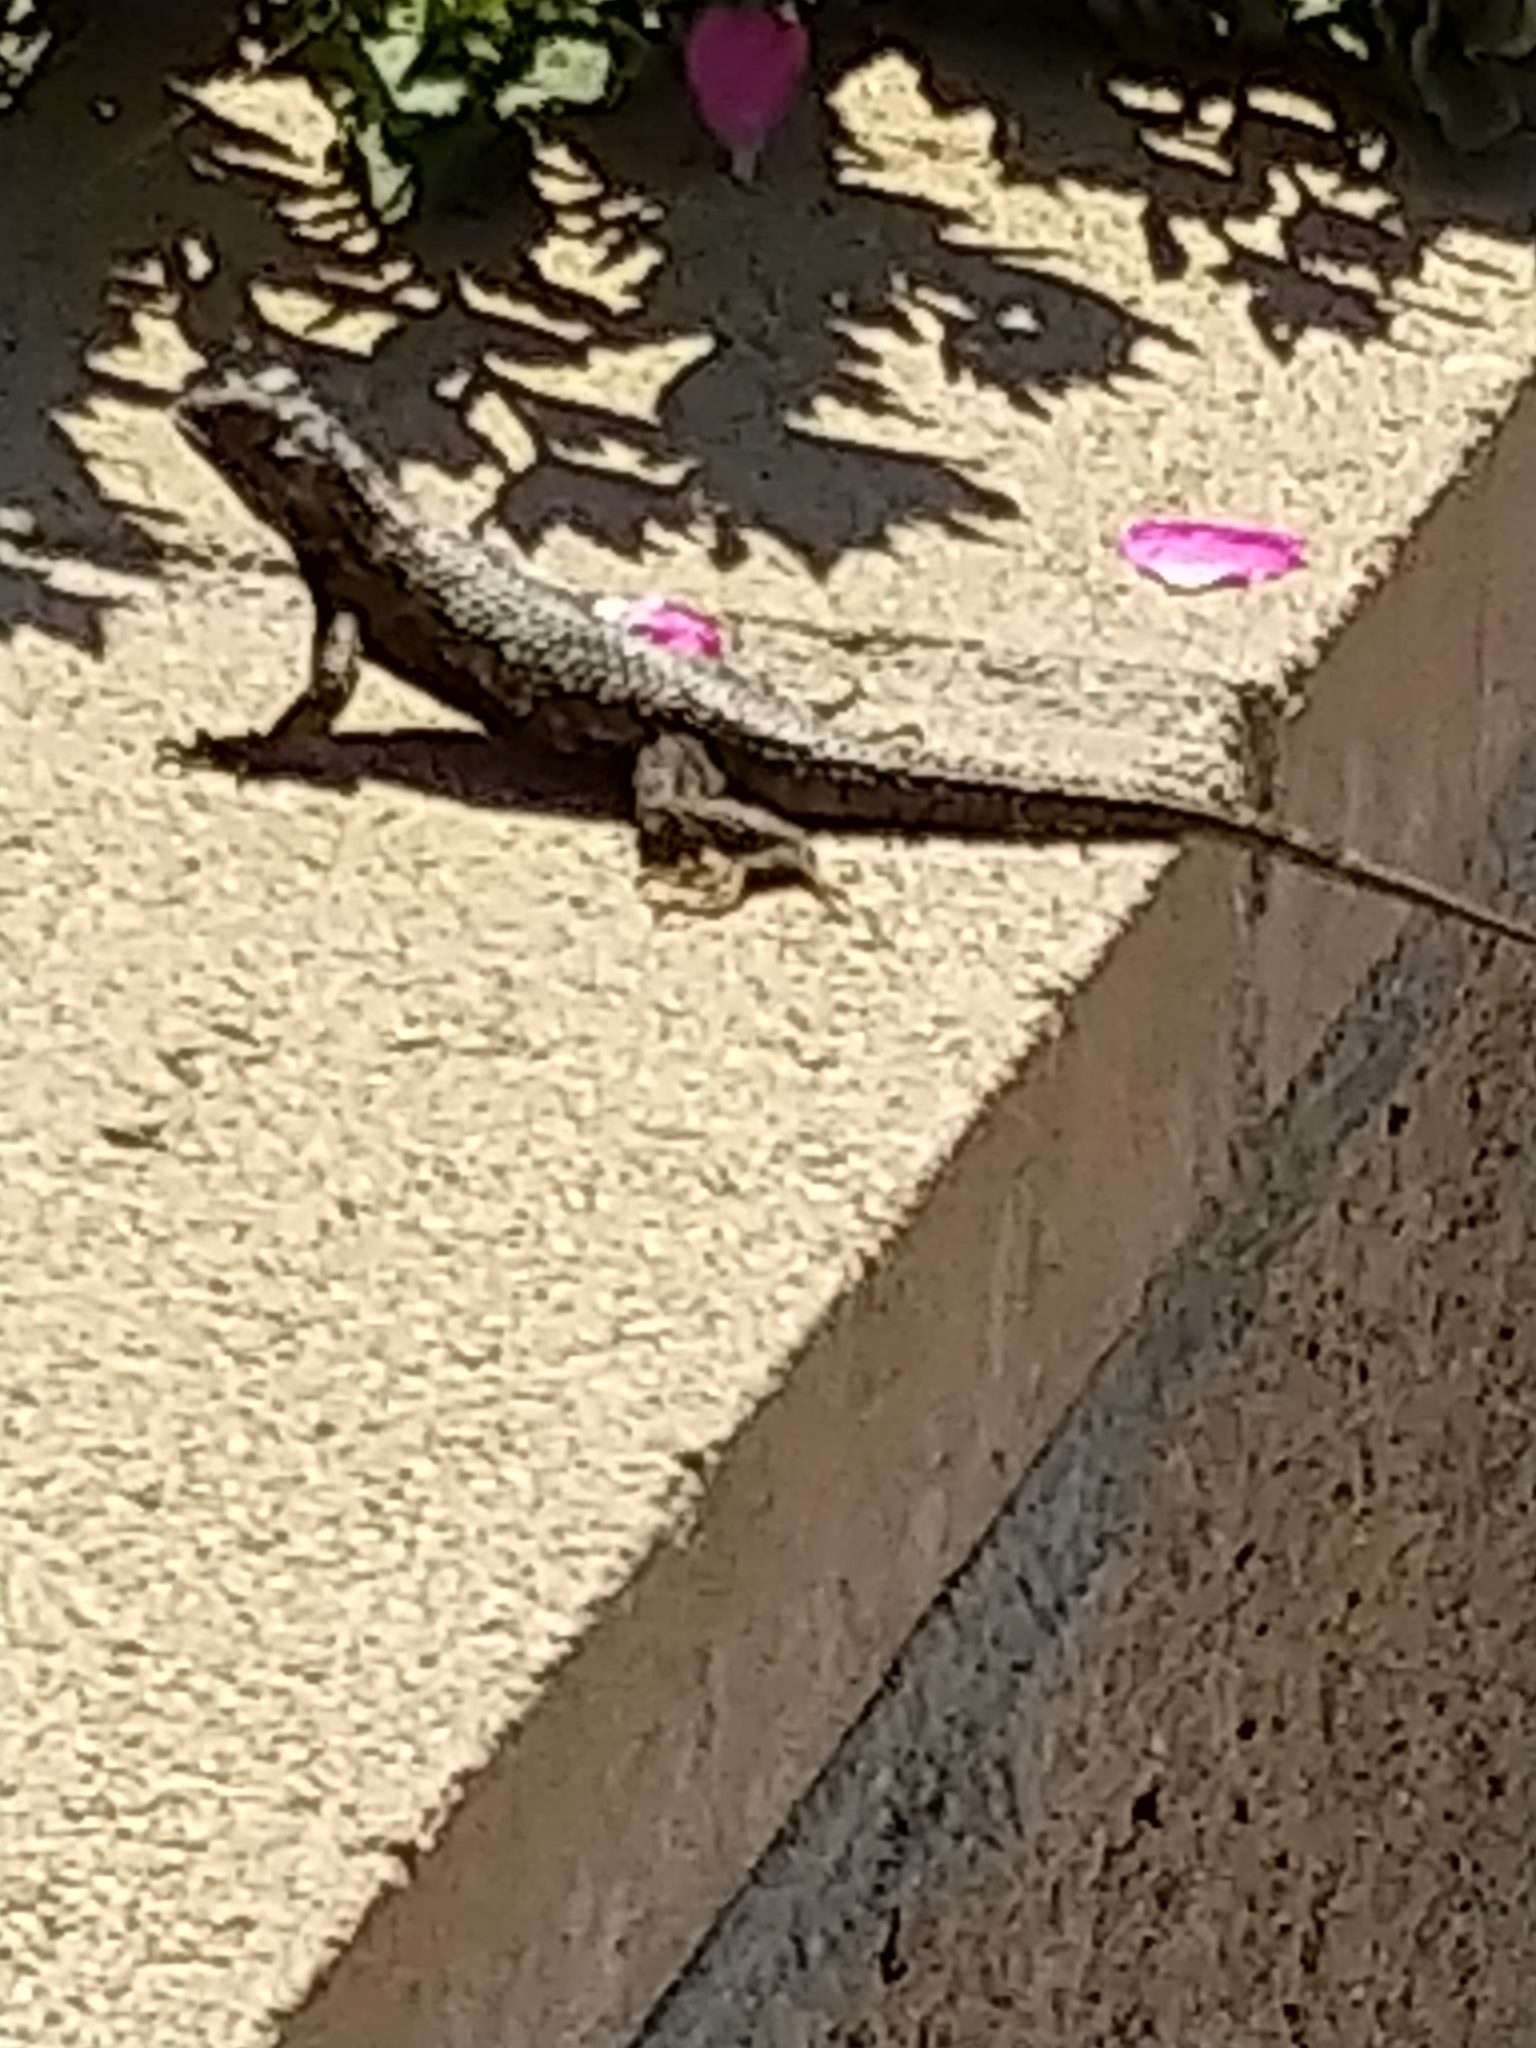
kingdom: Animalia
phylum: Chordata
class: Squamata
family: Phrynosomatidae
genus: Sceloporus
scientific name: Sceloporus occidentalis
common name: Western fence lizard
